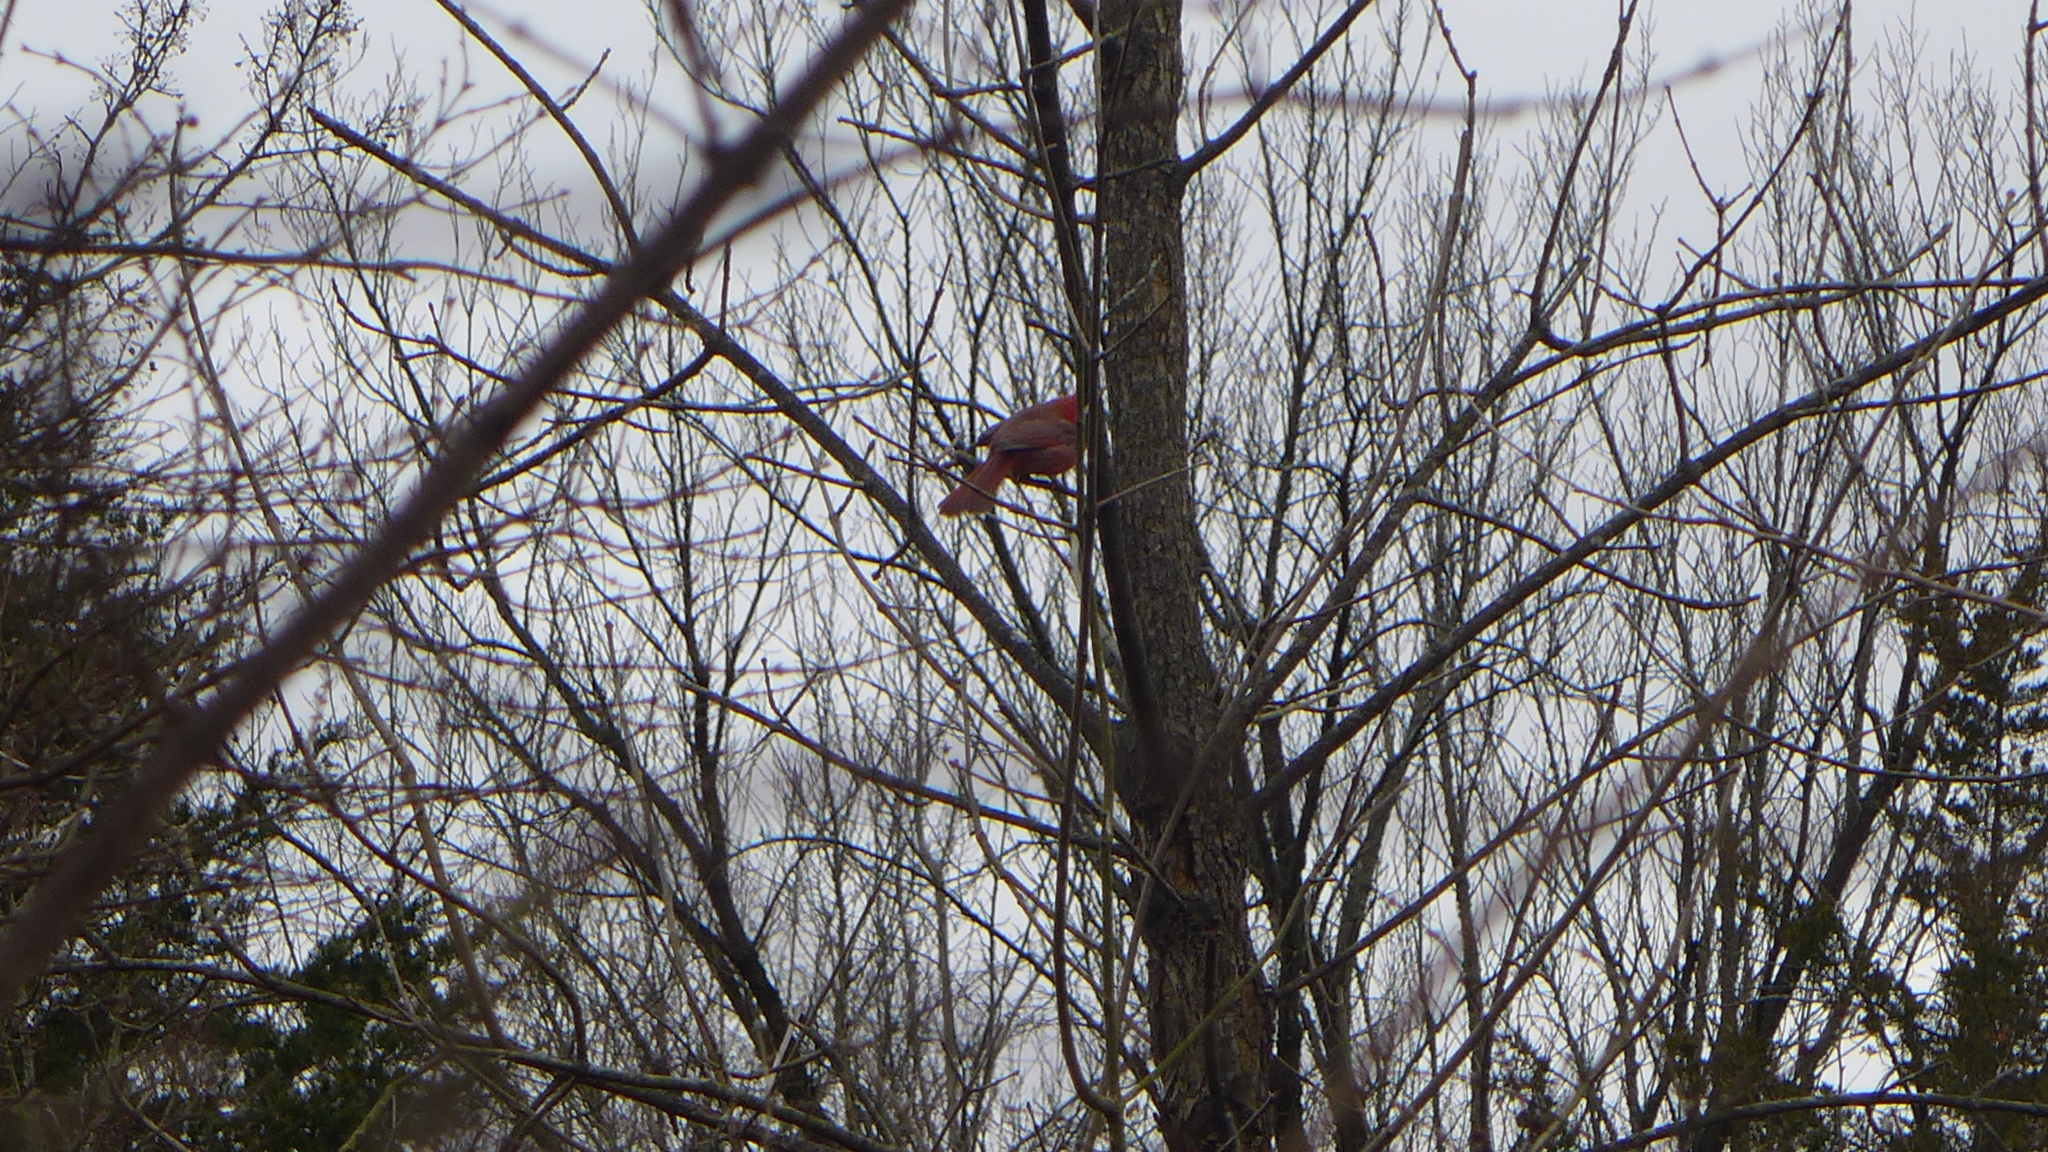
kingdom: Animalia
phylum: Chordata
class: Aves
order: Passeriformes
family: Cardinalidae
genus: Cardinalis
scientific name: Cardinalis cardinalis
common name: Northern cardinal
